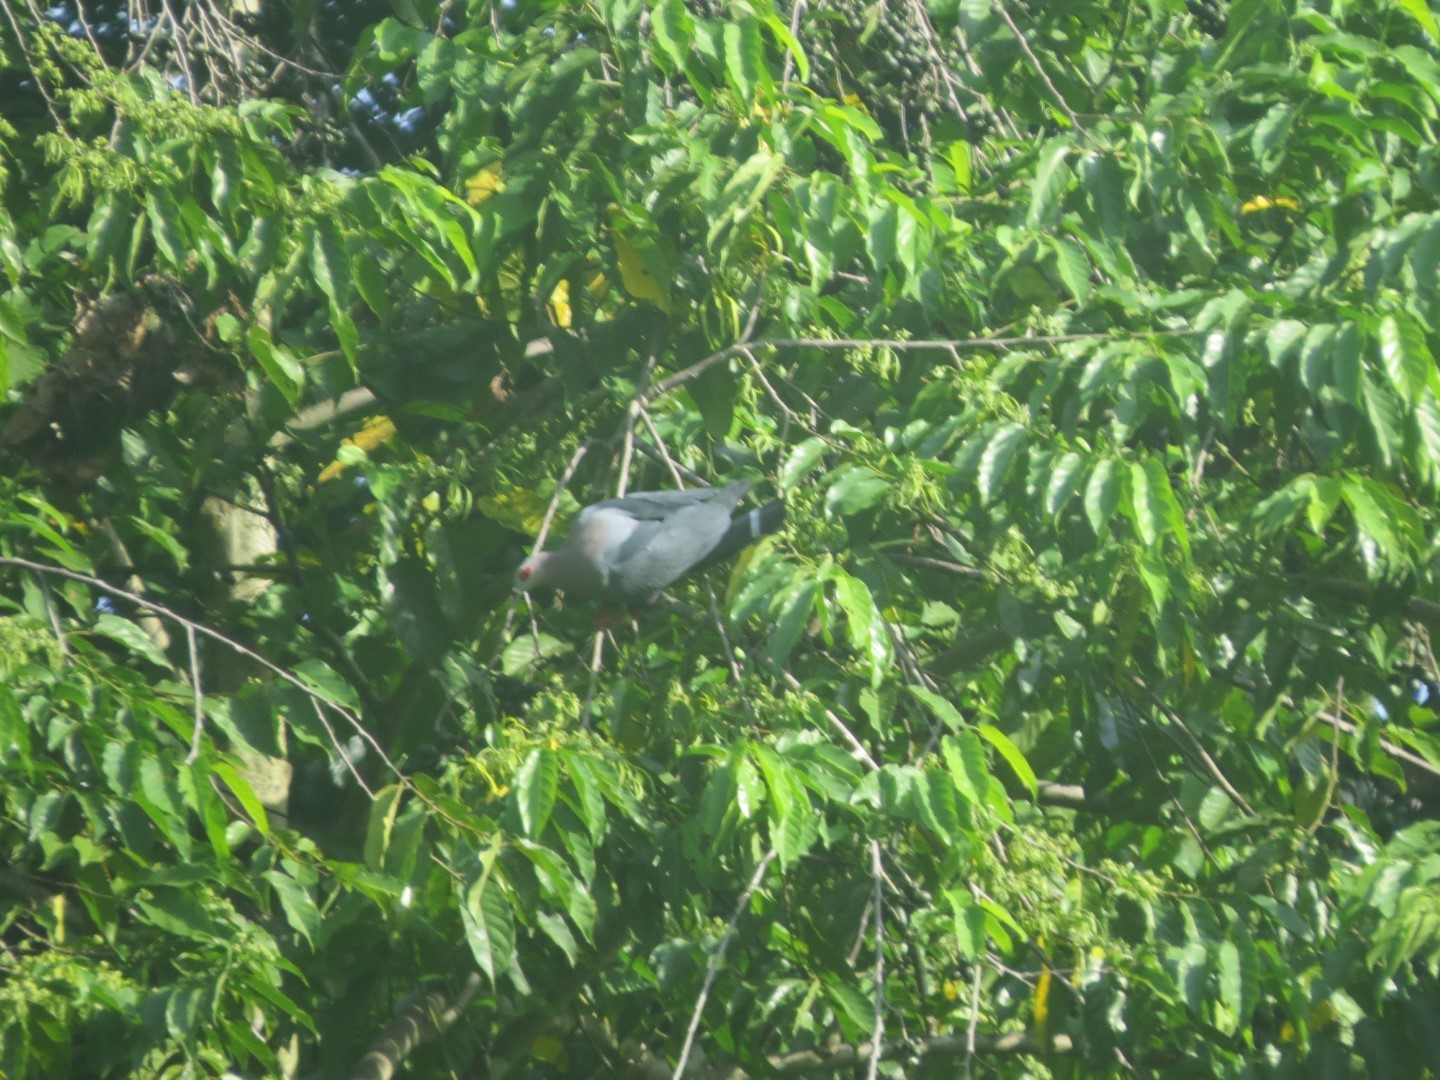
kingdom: Animalia
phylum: Chordata
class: Aves
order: Columbiformes
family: Columbidae
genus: Ducula
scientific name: Ducula pinon
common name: Pinon's imperial pigeon
